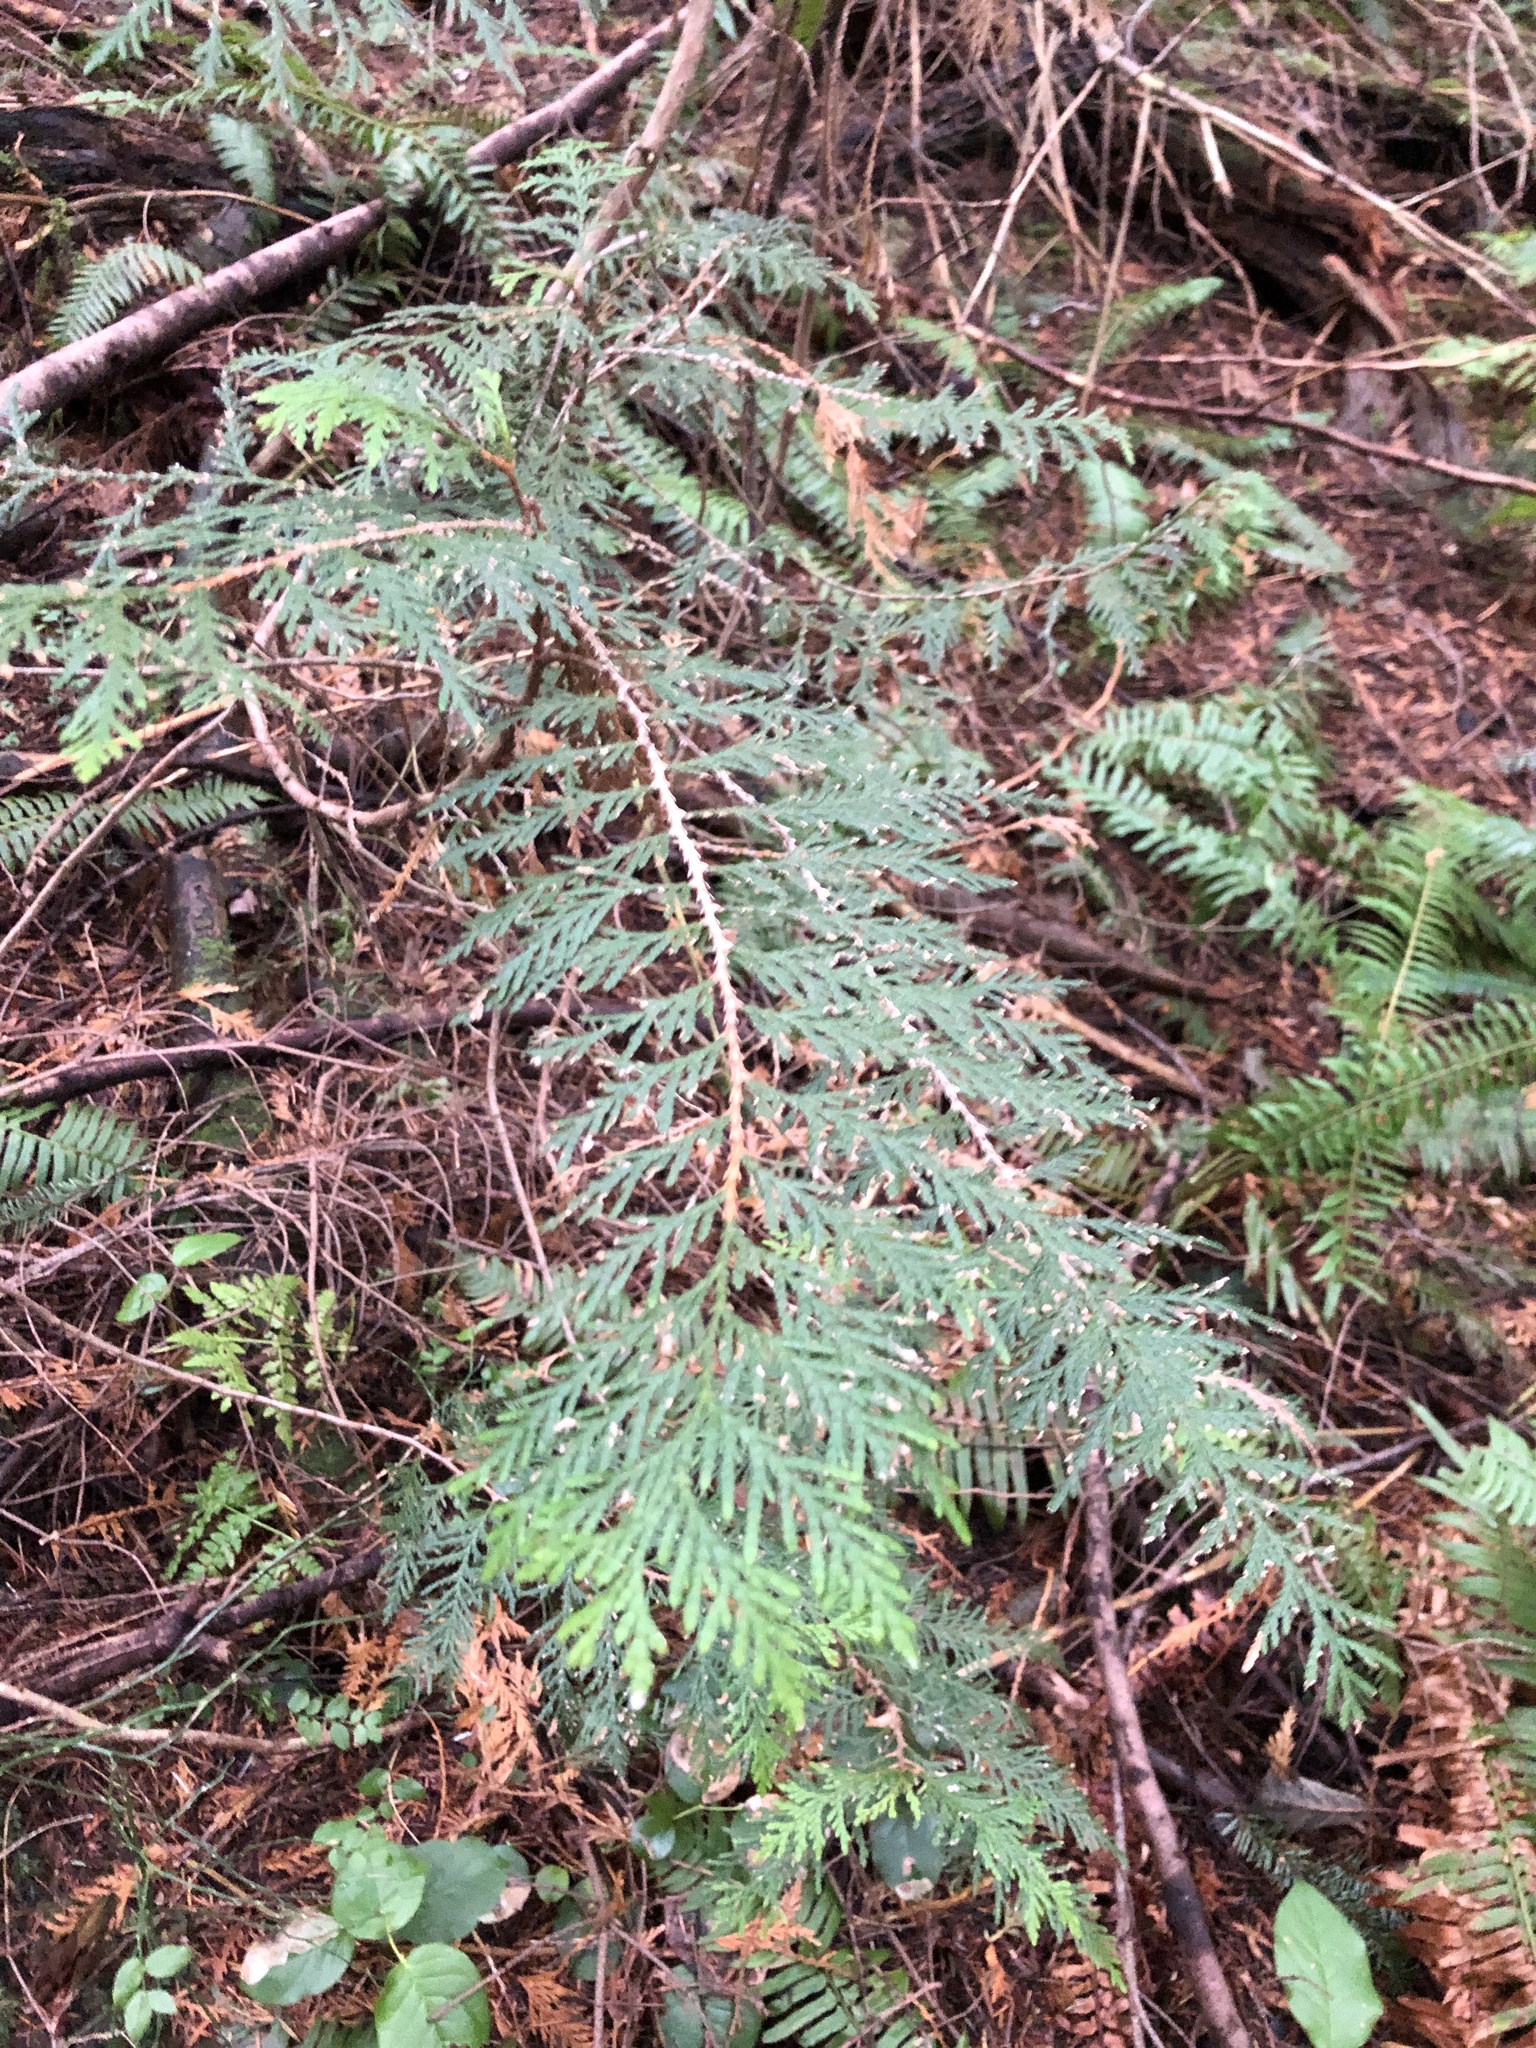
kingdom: Plantae
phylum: Tracheophyta
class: Pinopsida
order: Pinales
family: Cupressaceae
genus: Thuja
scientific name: Thuja plicata
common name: Western red-cedar
